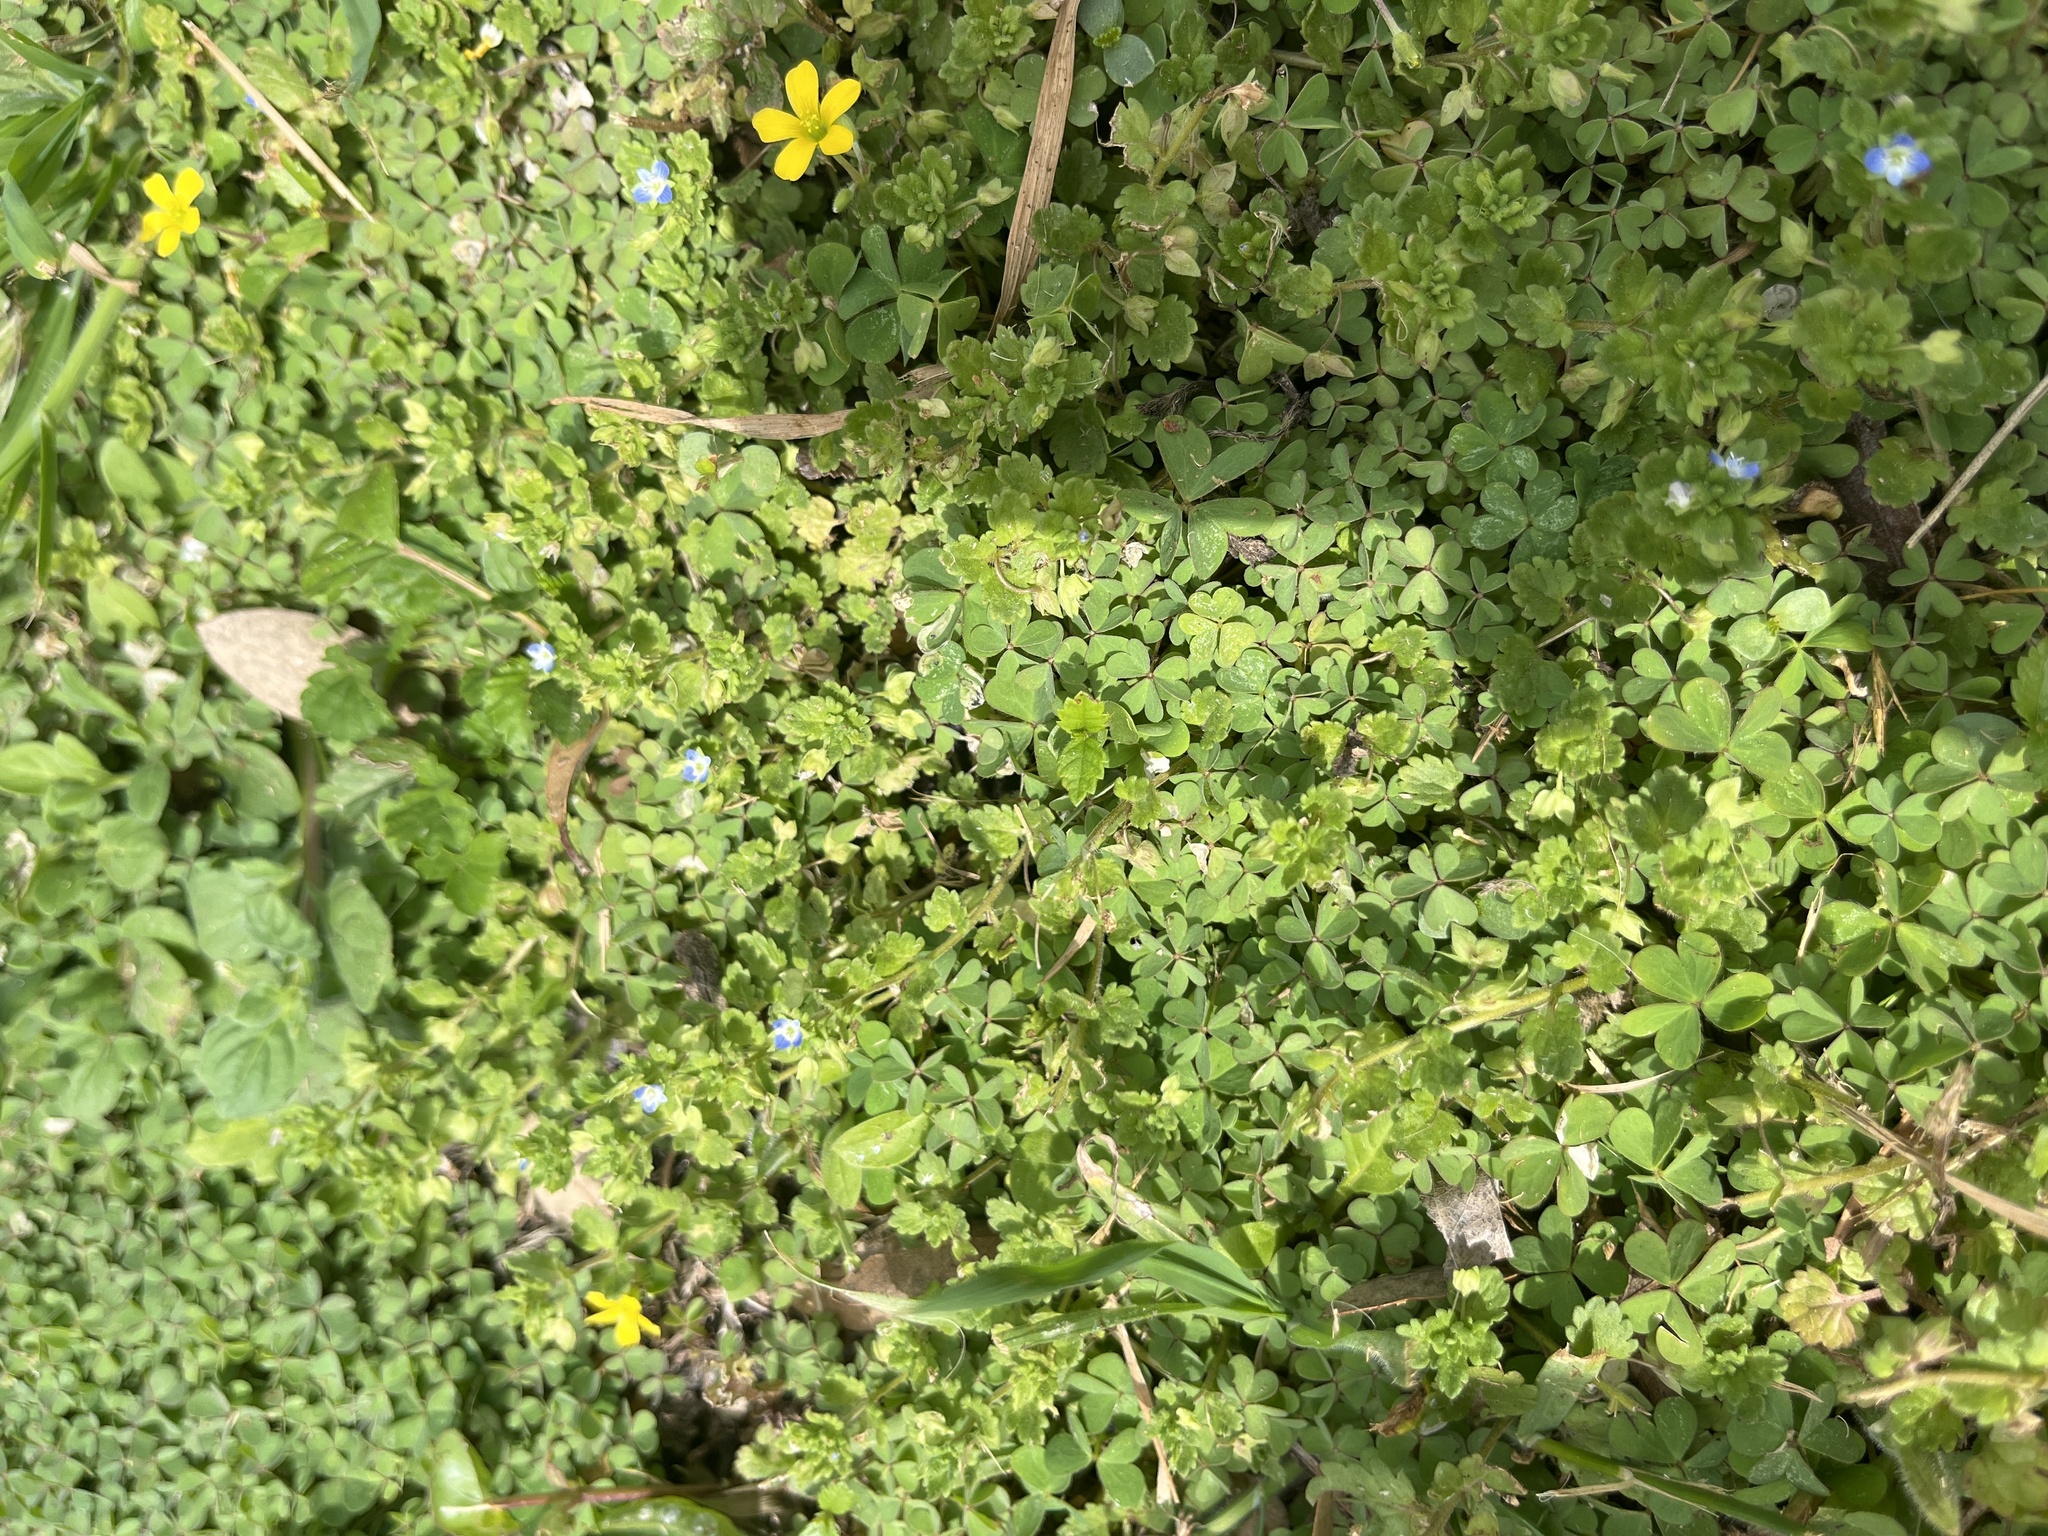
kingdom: Plantae
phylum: Tracheophyta
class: Magnoliopsida
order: Lamiales
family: Plantaginaceae
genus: Veronica
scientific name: Veronica polita
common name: Grey field-speedwell
